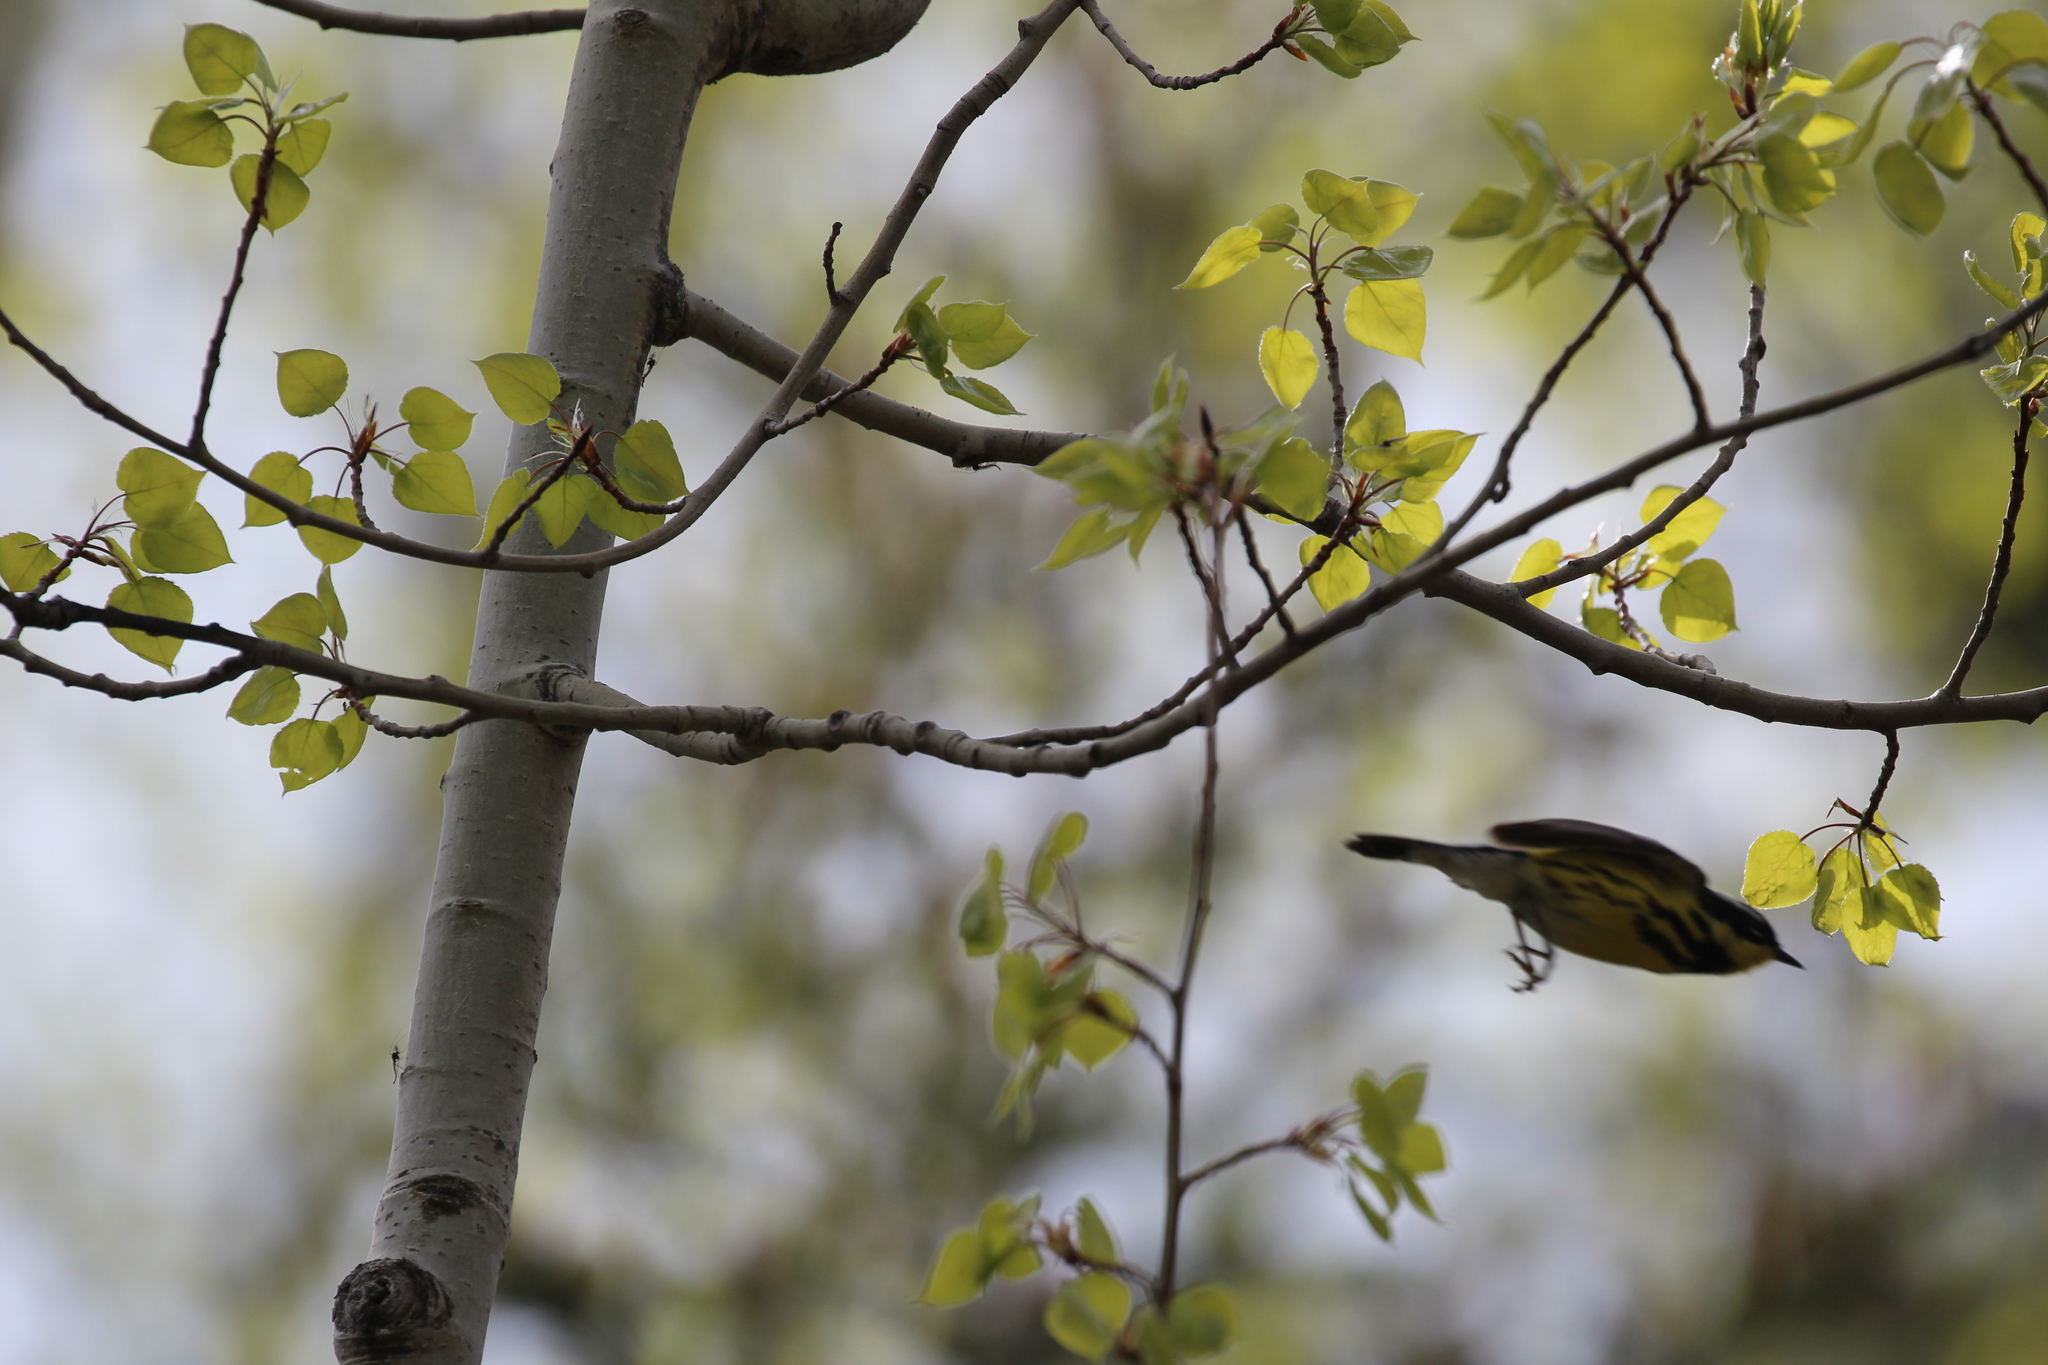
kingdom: Animalia
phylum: Chordata
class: Aves
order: Passeriformes
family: Parulidae
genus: Setophaga
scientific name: Setophaga magnolia
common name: Magnolia warbler
